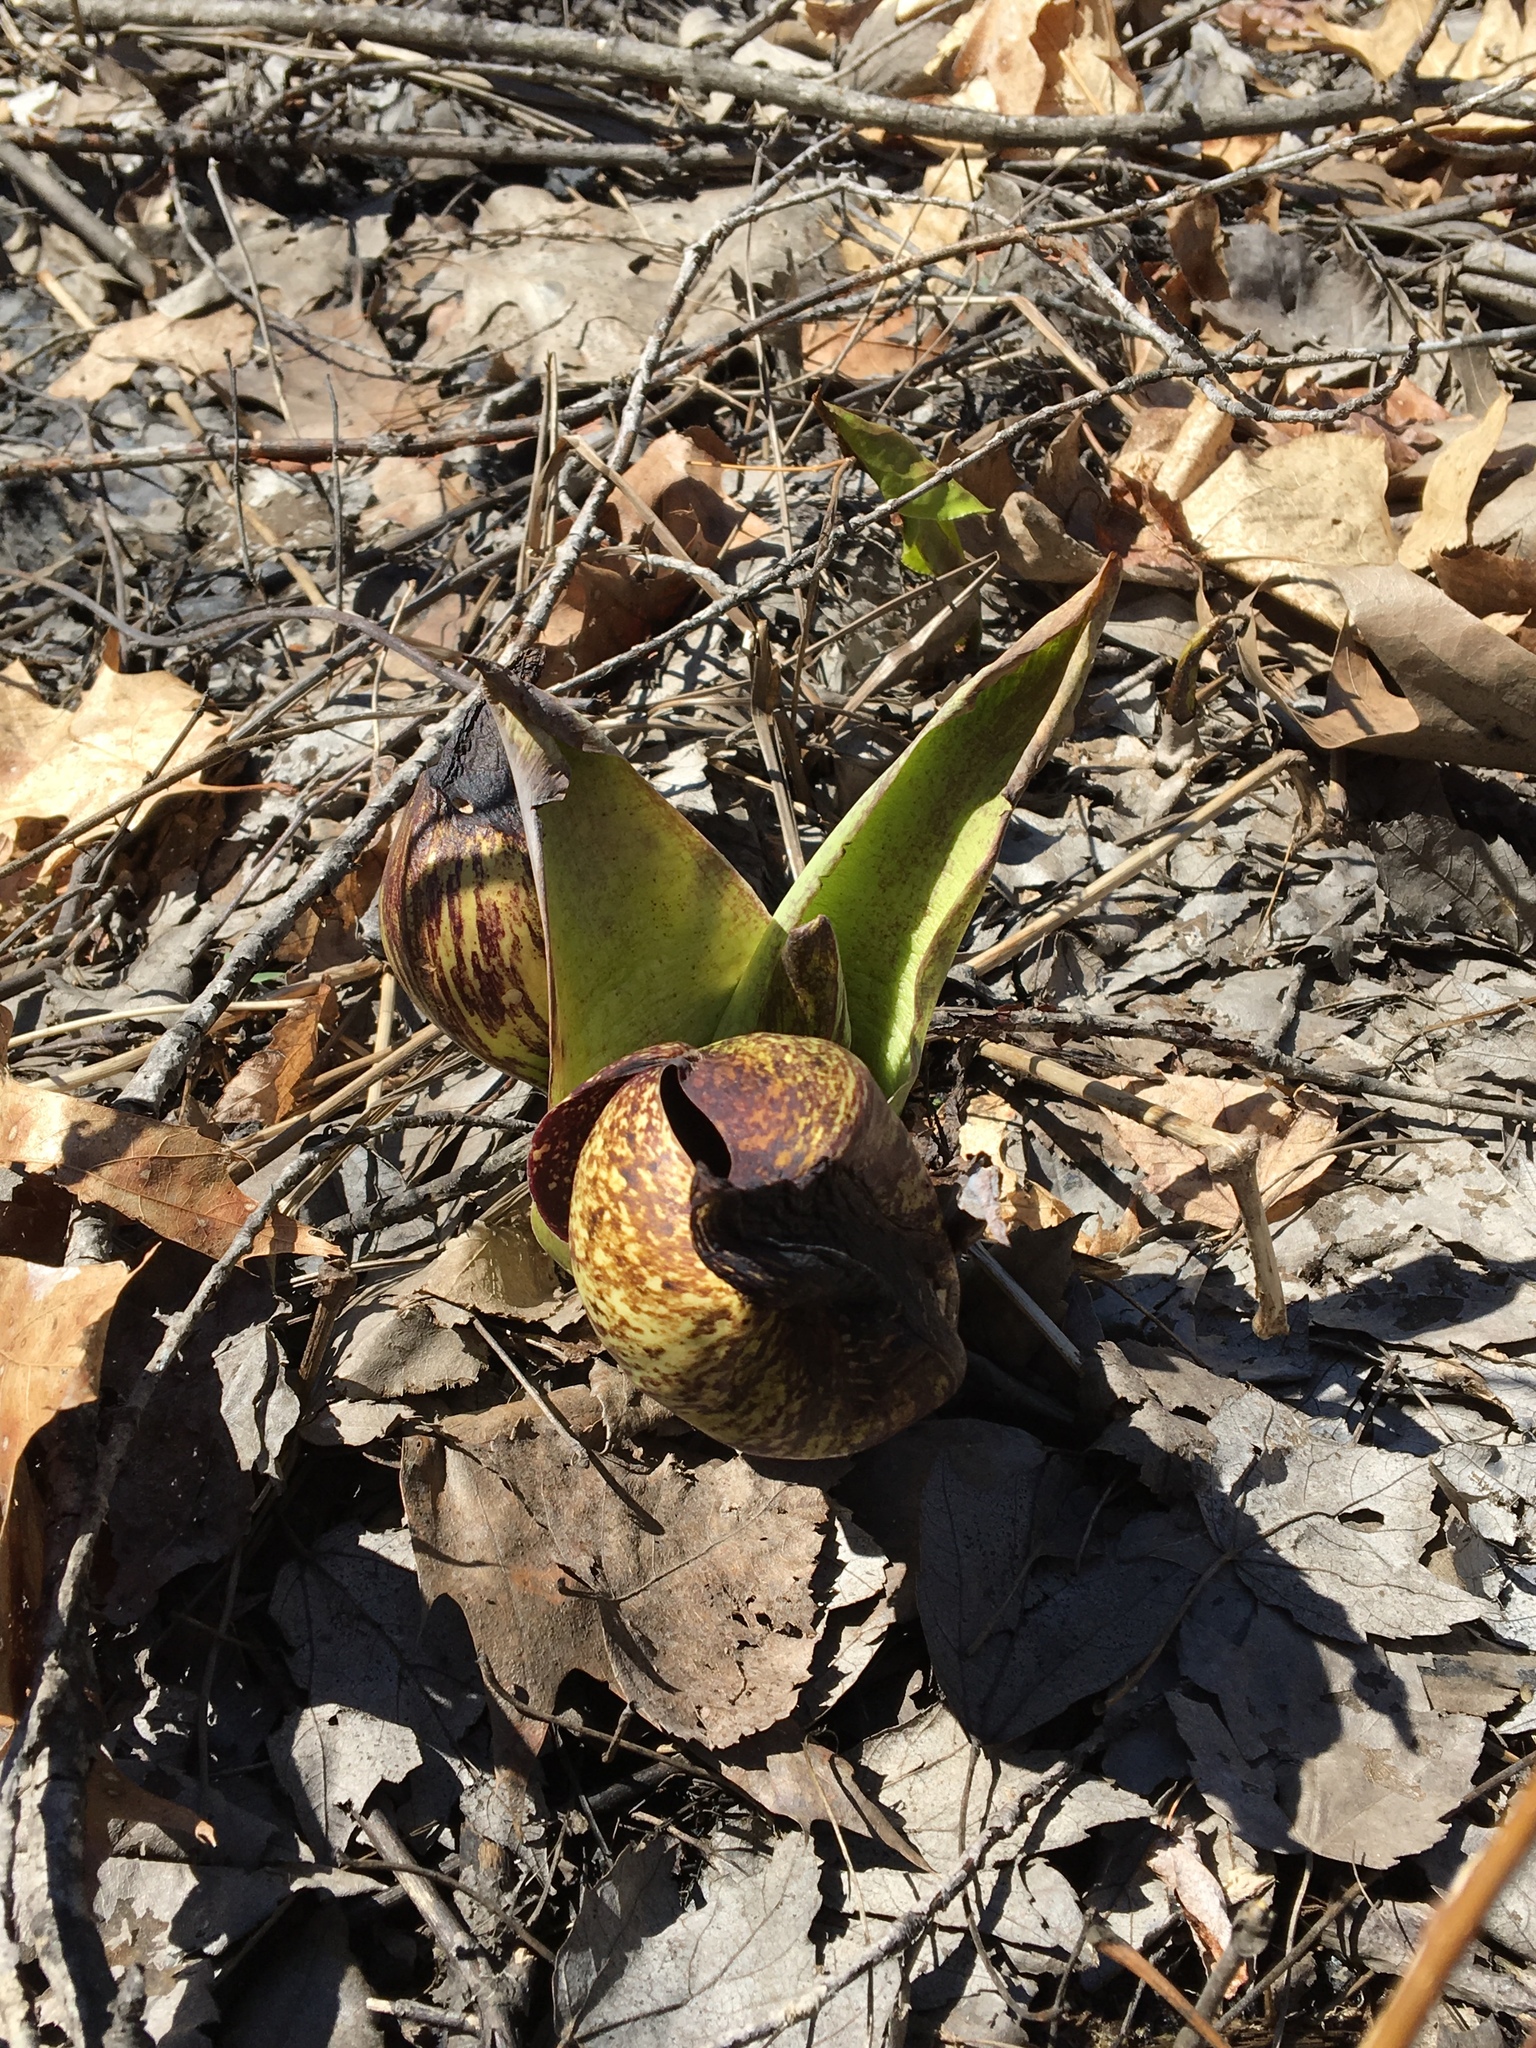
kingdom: Plantae
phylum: Tracheophyta
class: Liliopsida
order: Alismatales
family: Araceae
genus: Symplocarpus
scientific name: Symplocarpus foetidus
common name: Eastern skunk cabbage
